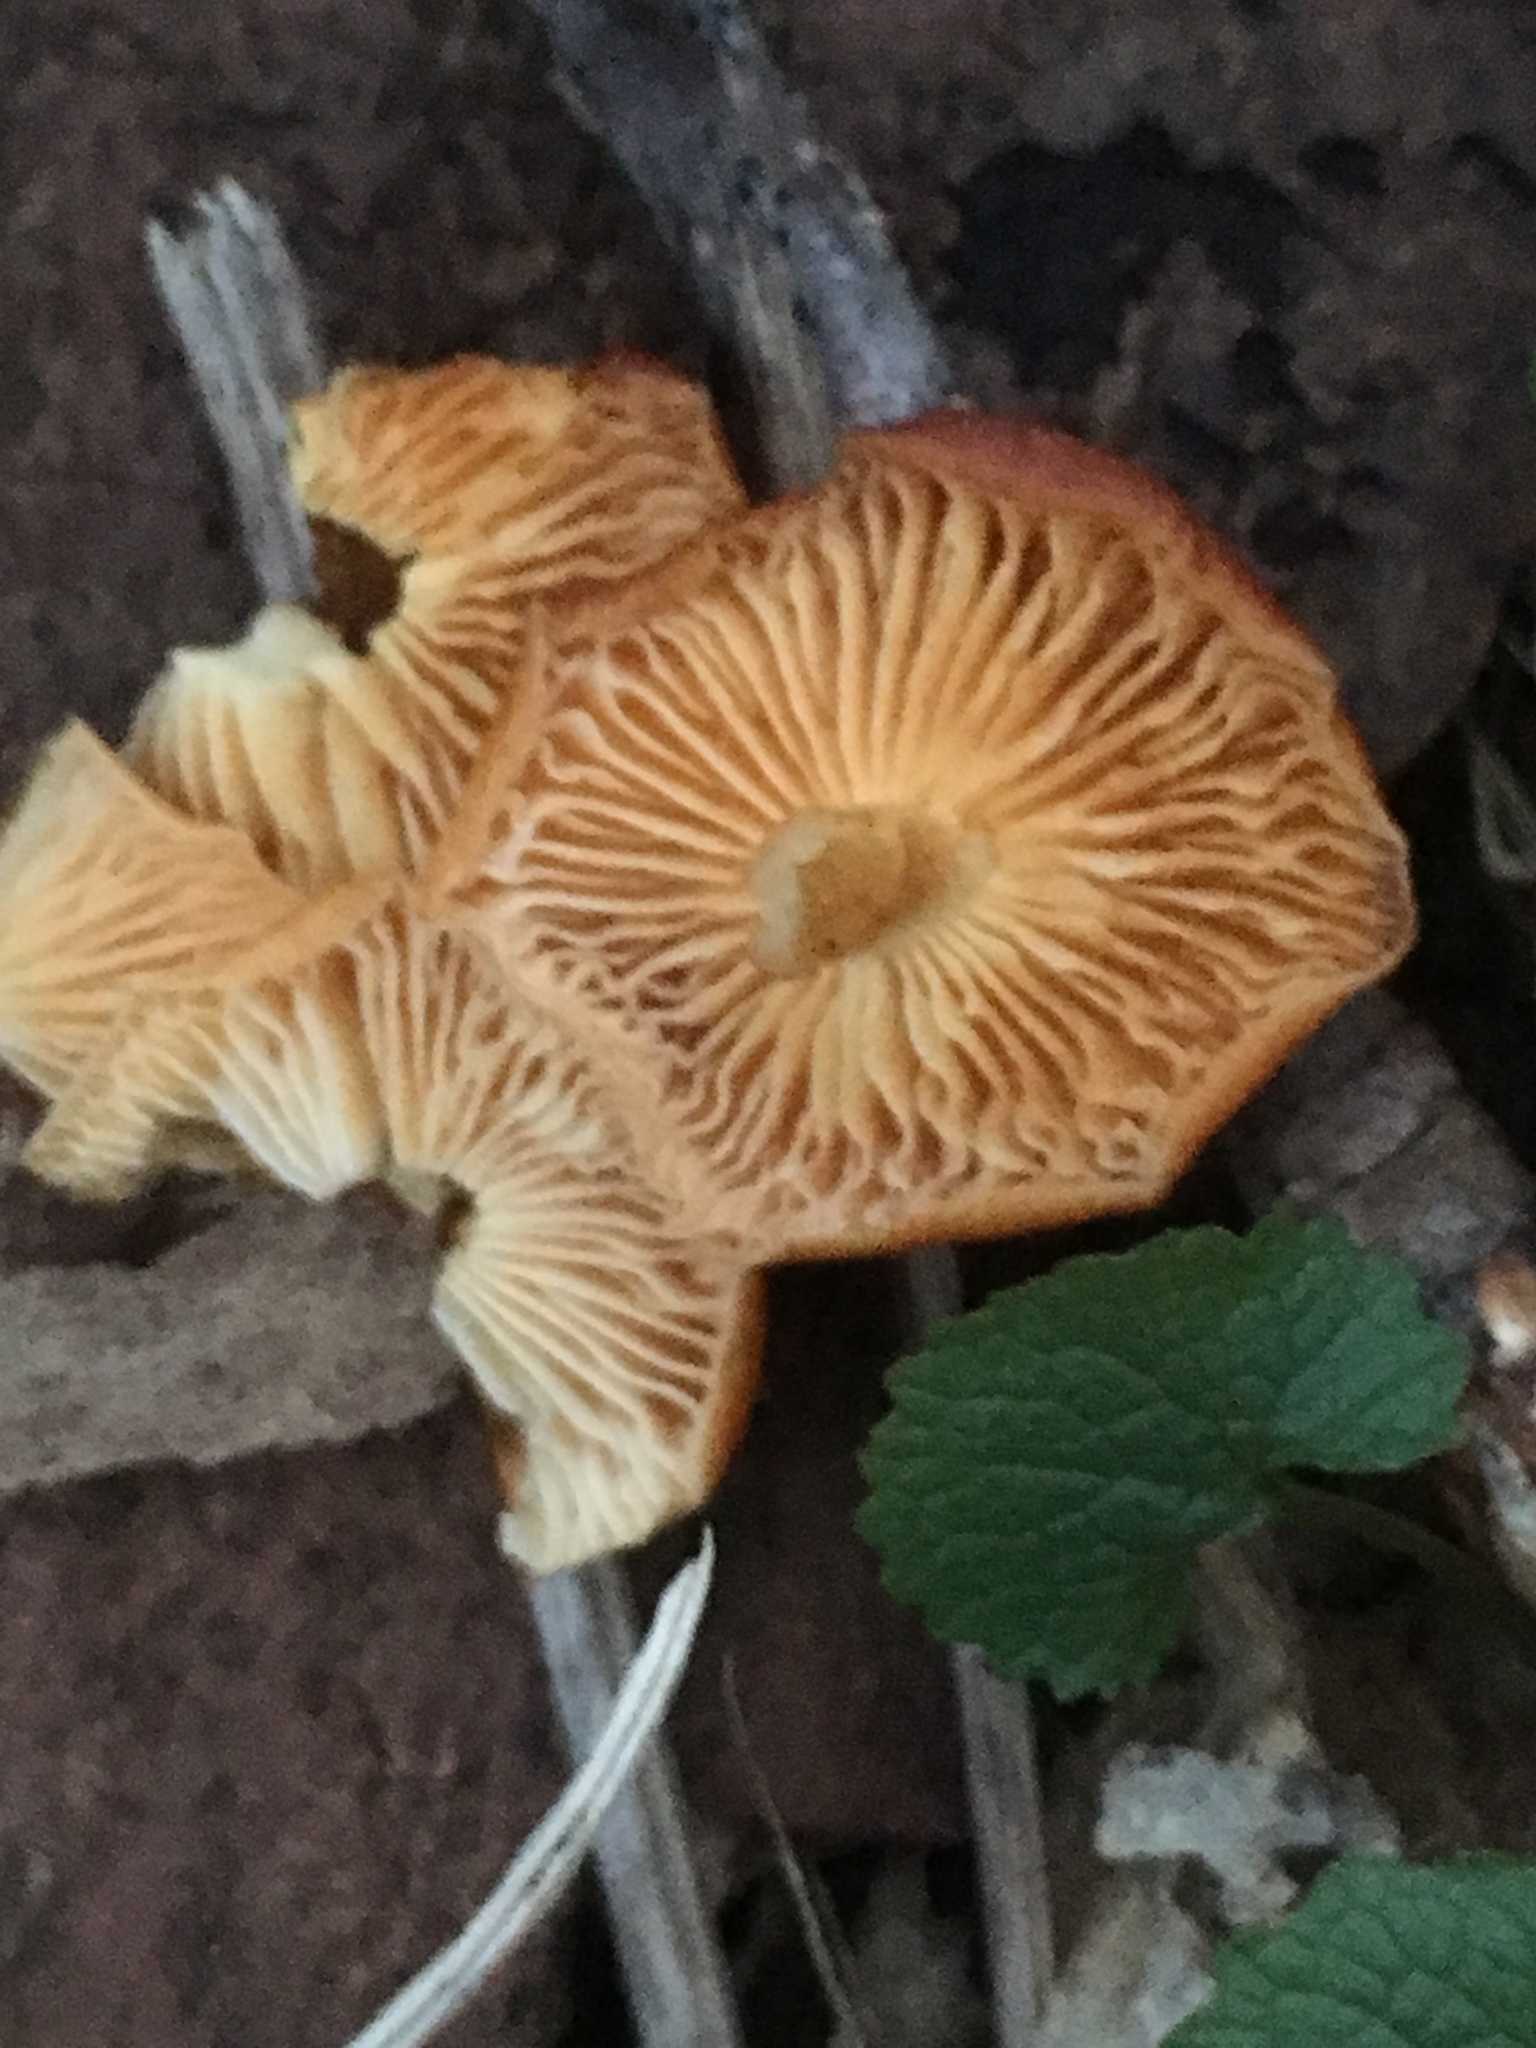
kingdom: Fungi
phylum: Basidiomycota
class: Agaricomycetes
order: Agaricales
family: Physalacriaceae
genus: Flammulina
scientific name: Flammulina
